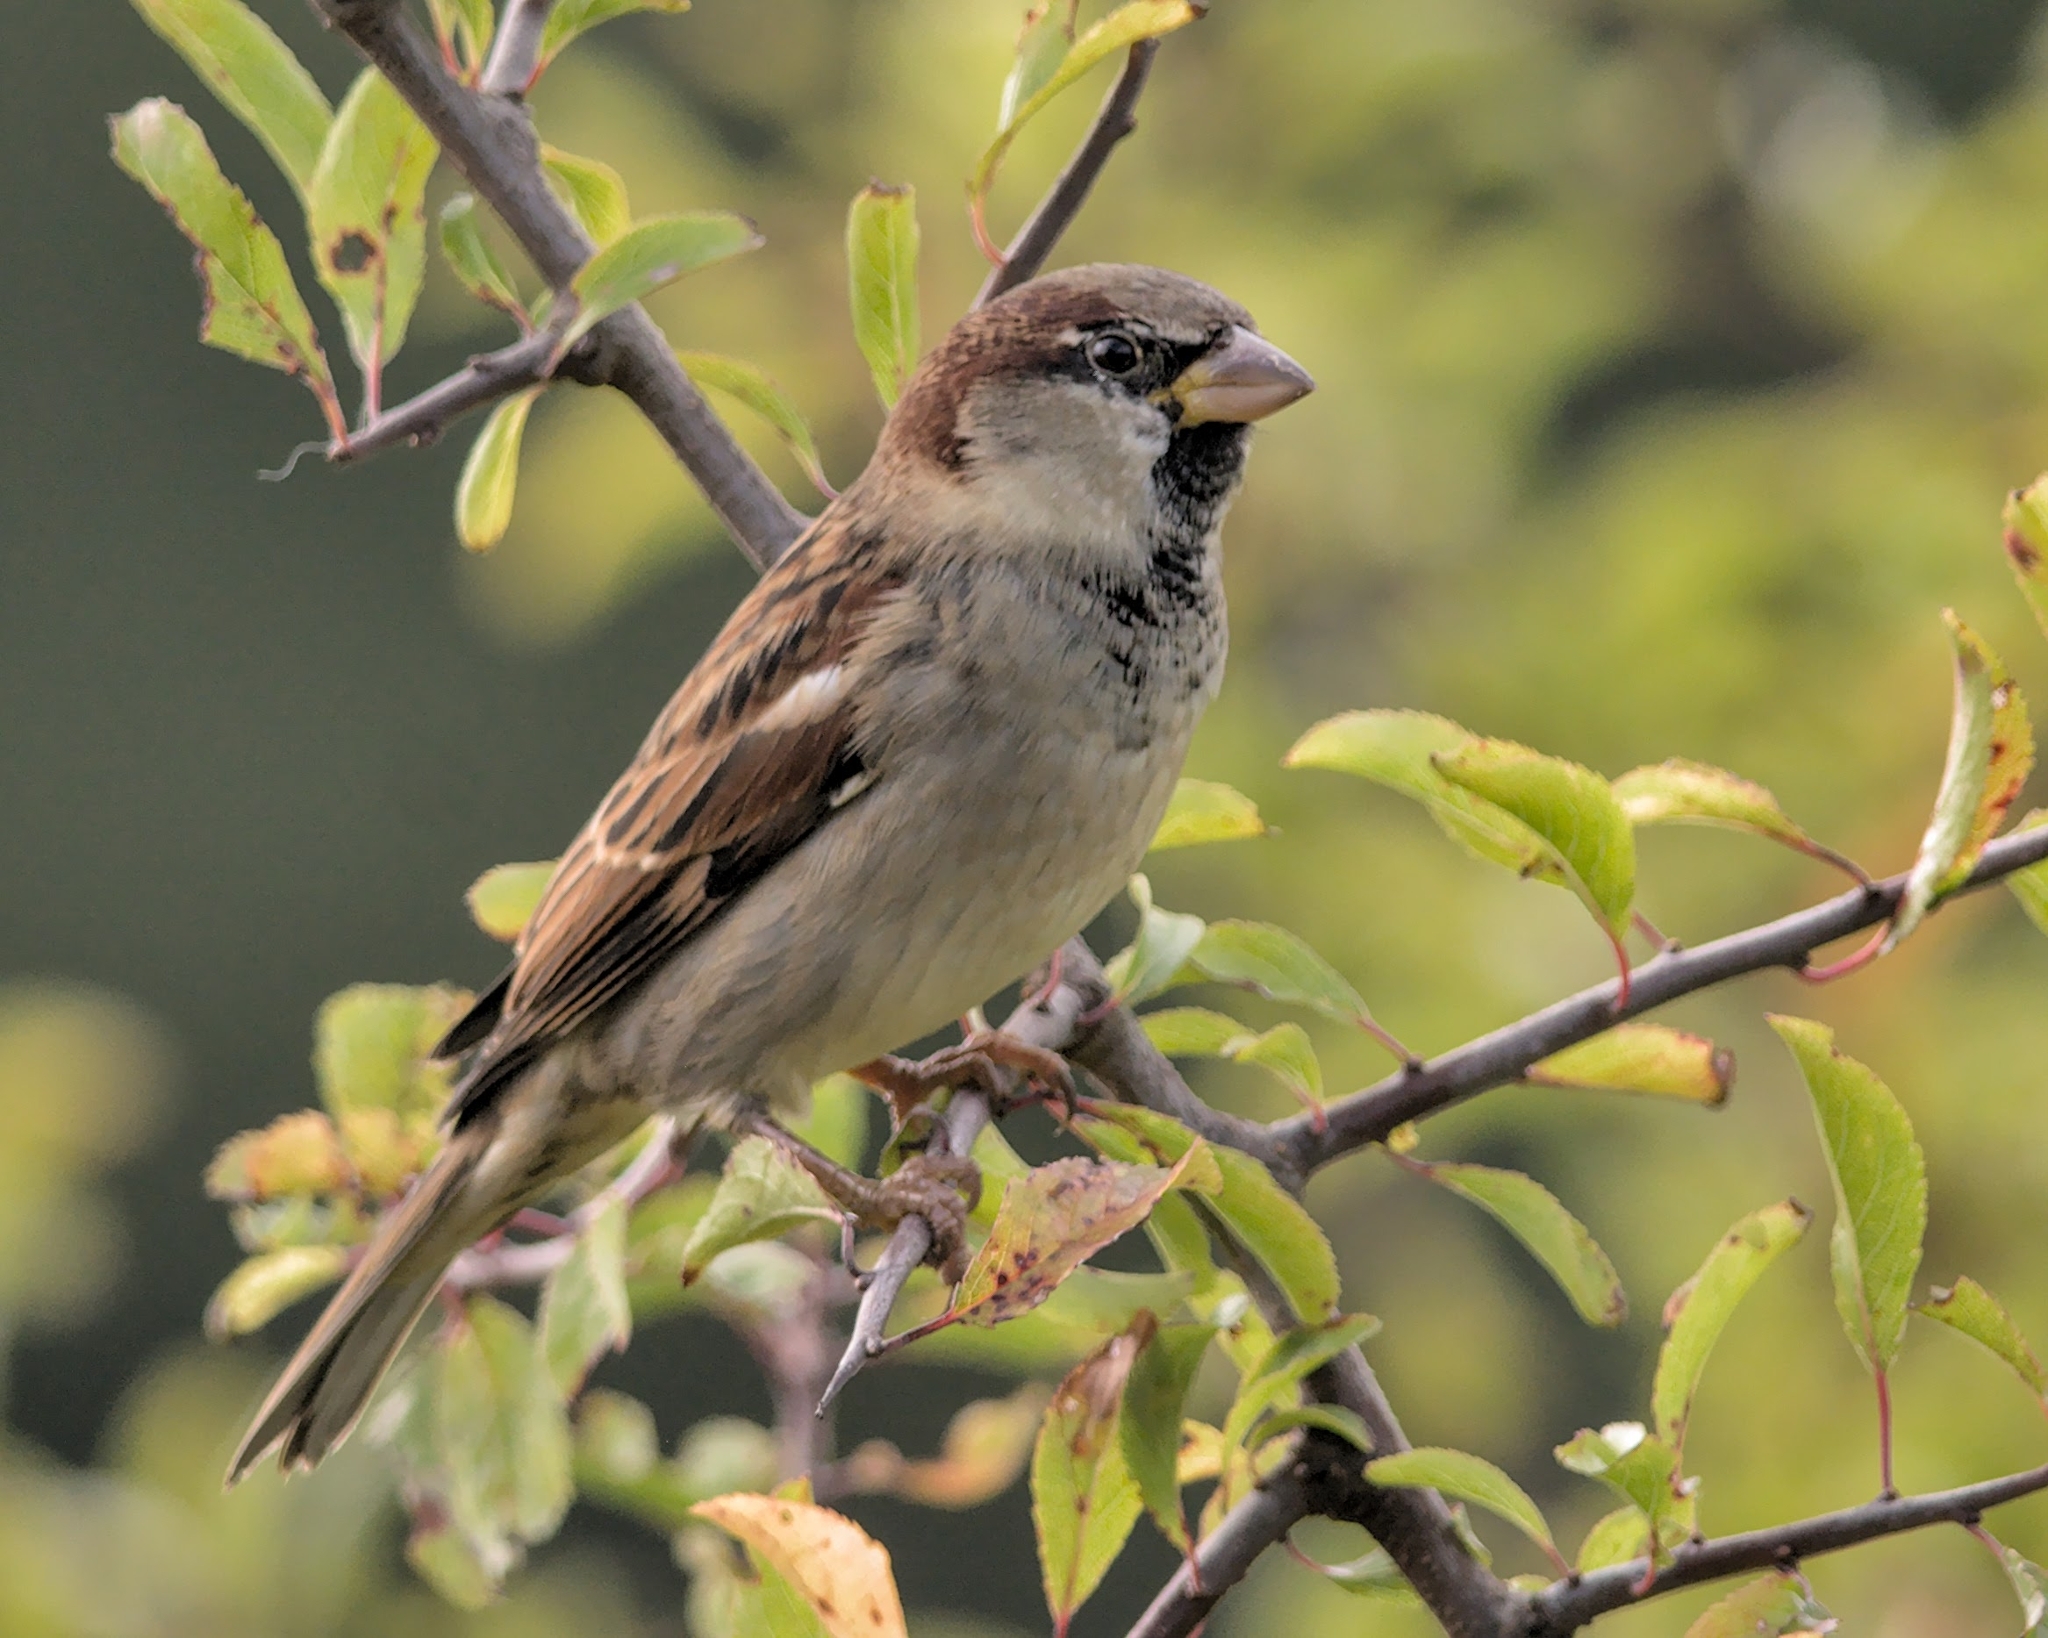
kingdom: Animalia
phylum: Chordata
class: Aves
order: Passeriformes
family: Passeridae
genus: Passer
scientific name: Passer domesticus
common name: House sparrow
